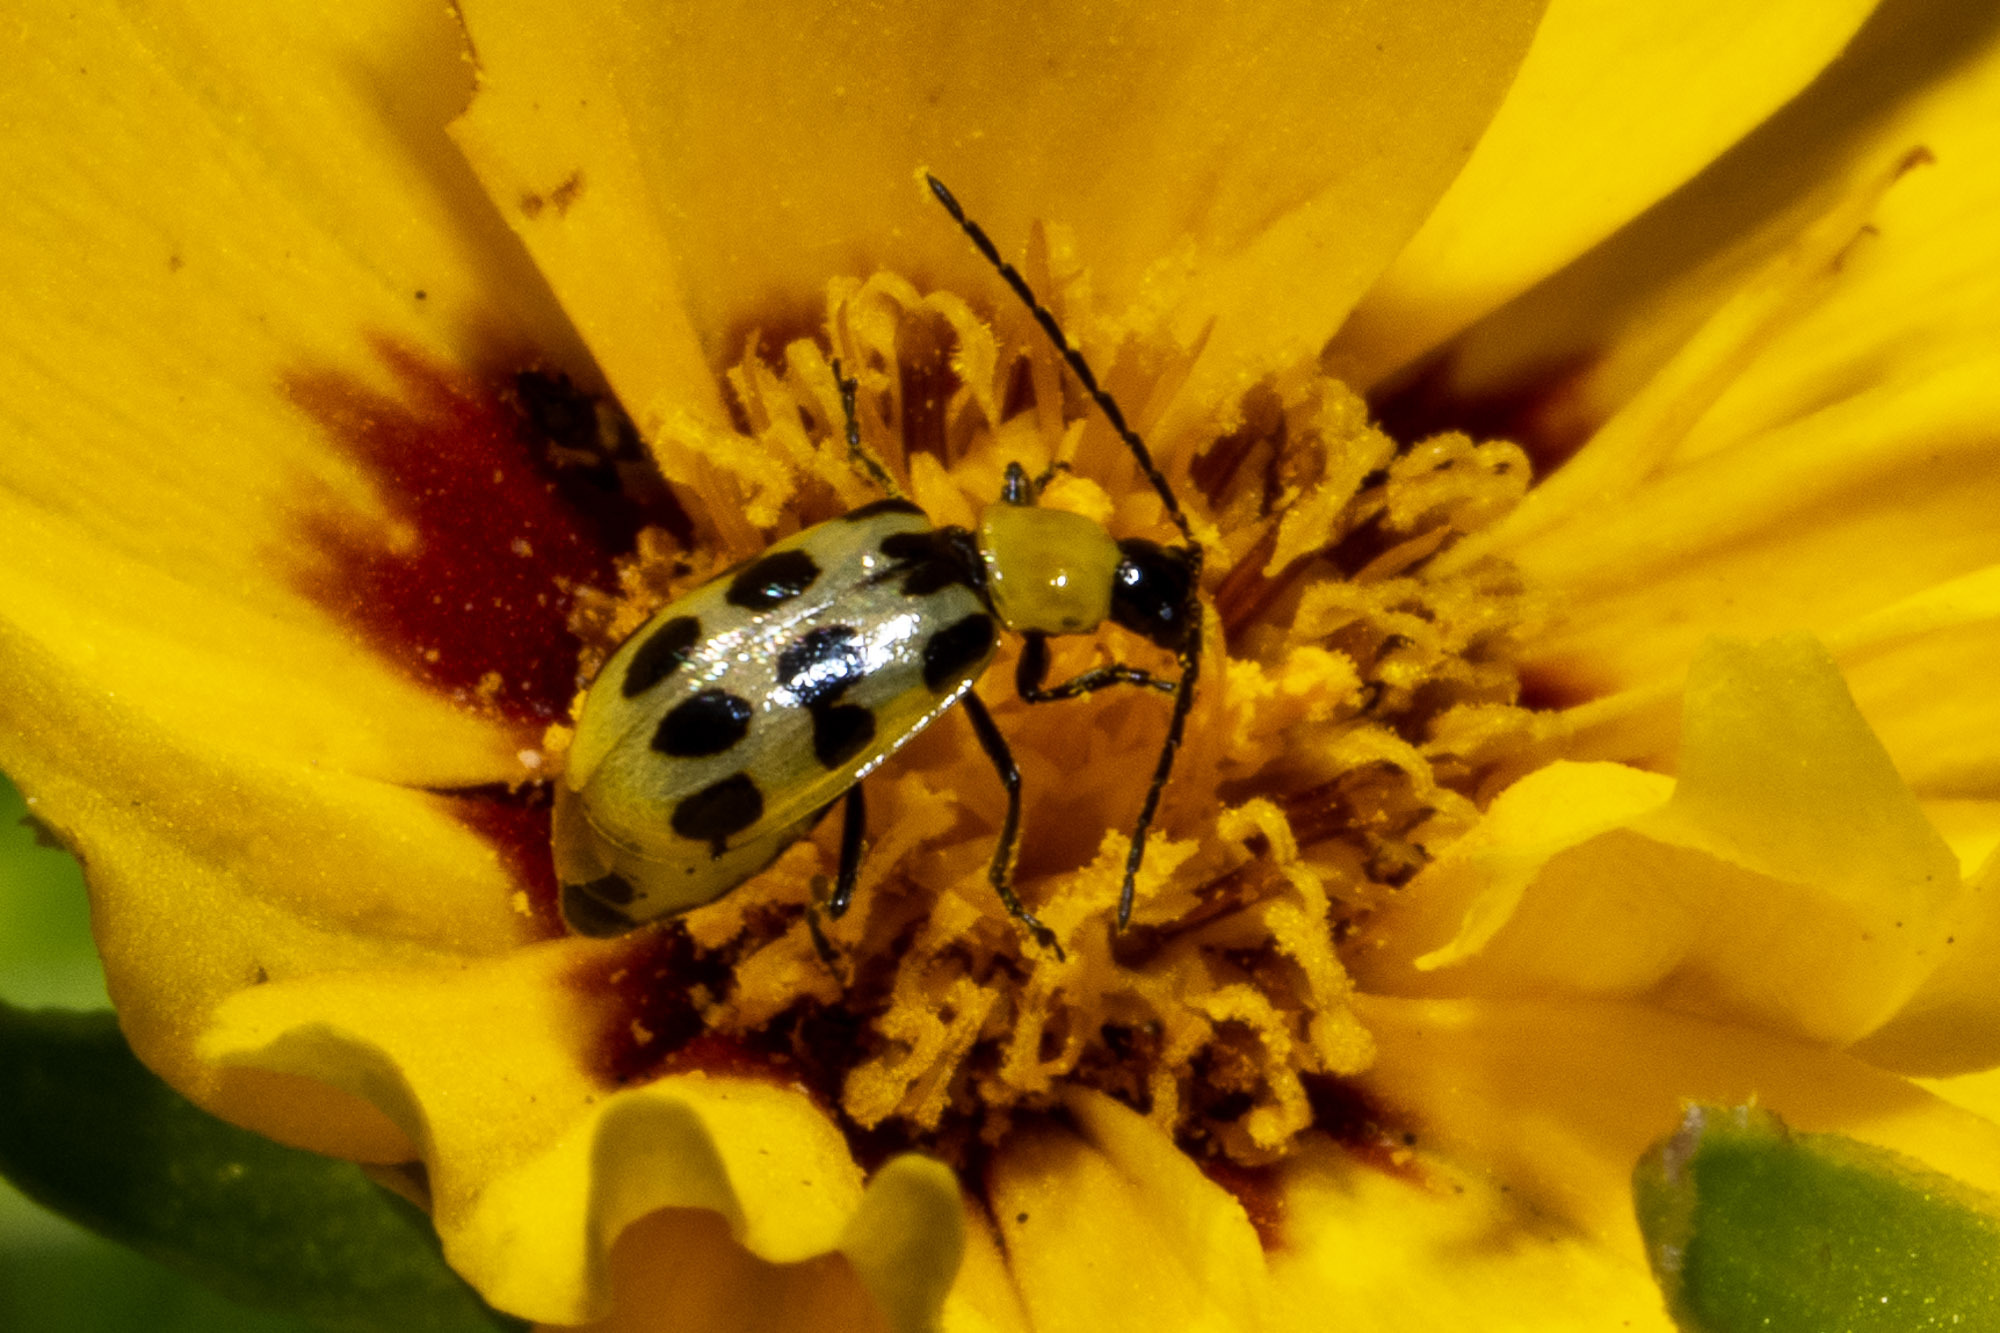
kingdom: Animalia
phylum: Arthropoda
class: Insecta
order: Coleoptera
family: Chrysomelidae
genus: Diabrotica
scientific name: Diabrotica undecimpunctata
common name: Spotted cucumber beetle
